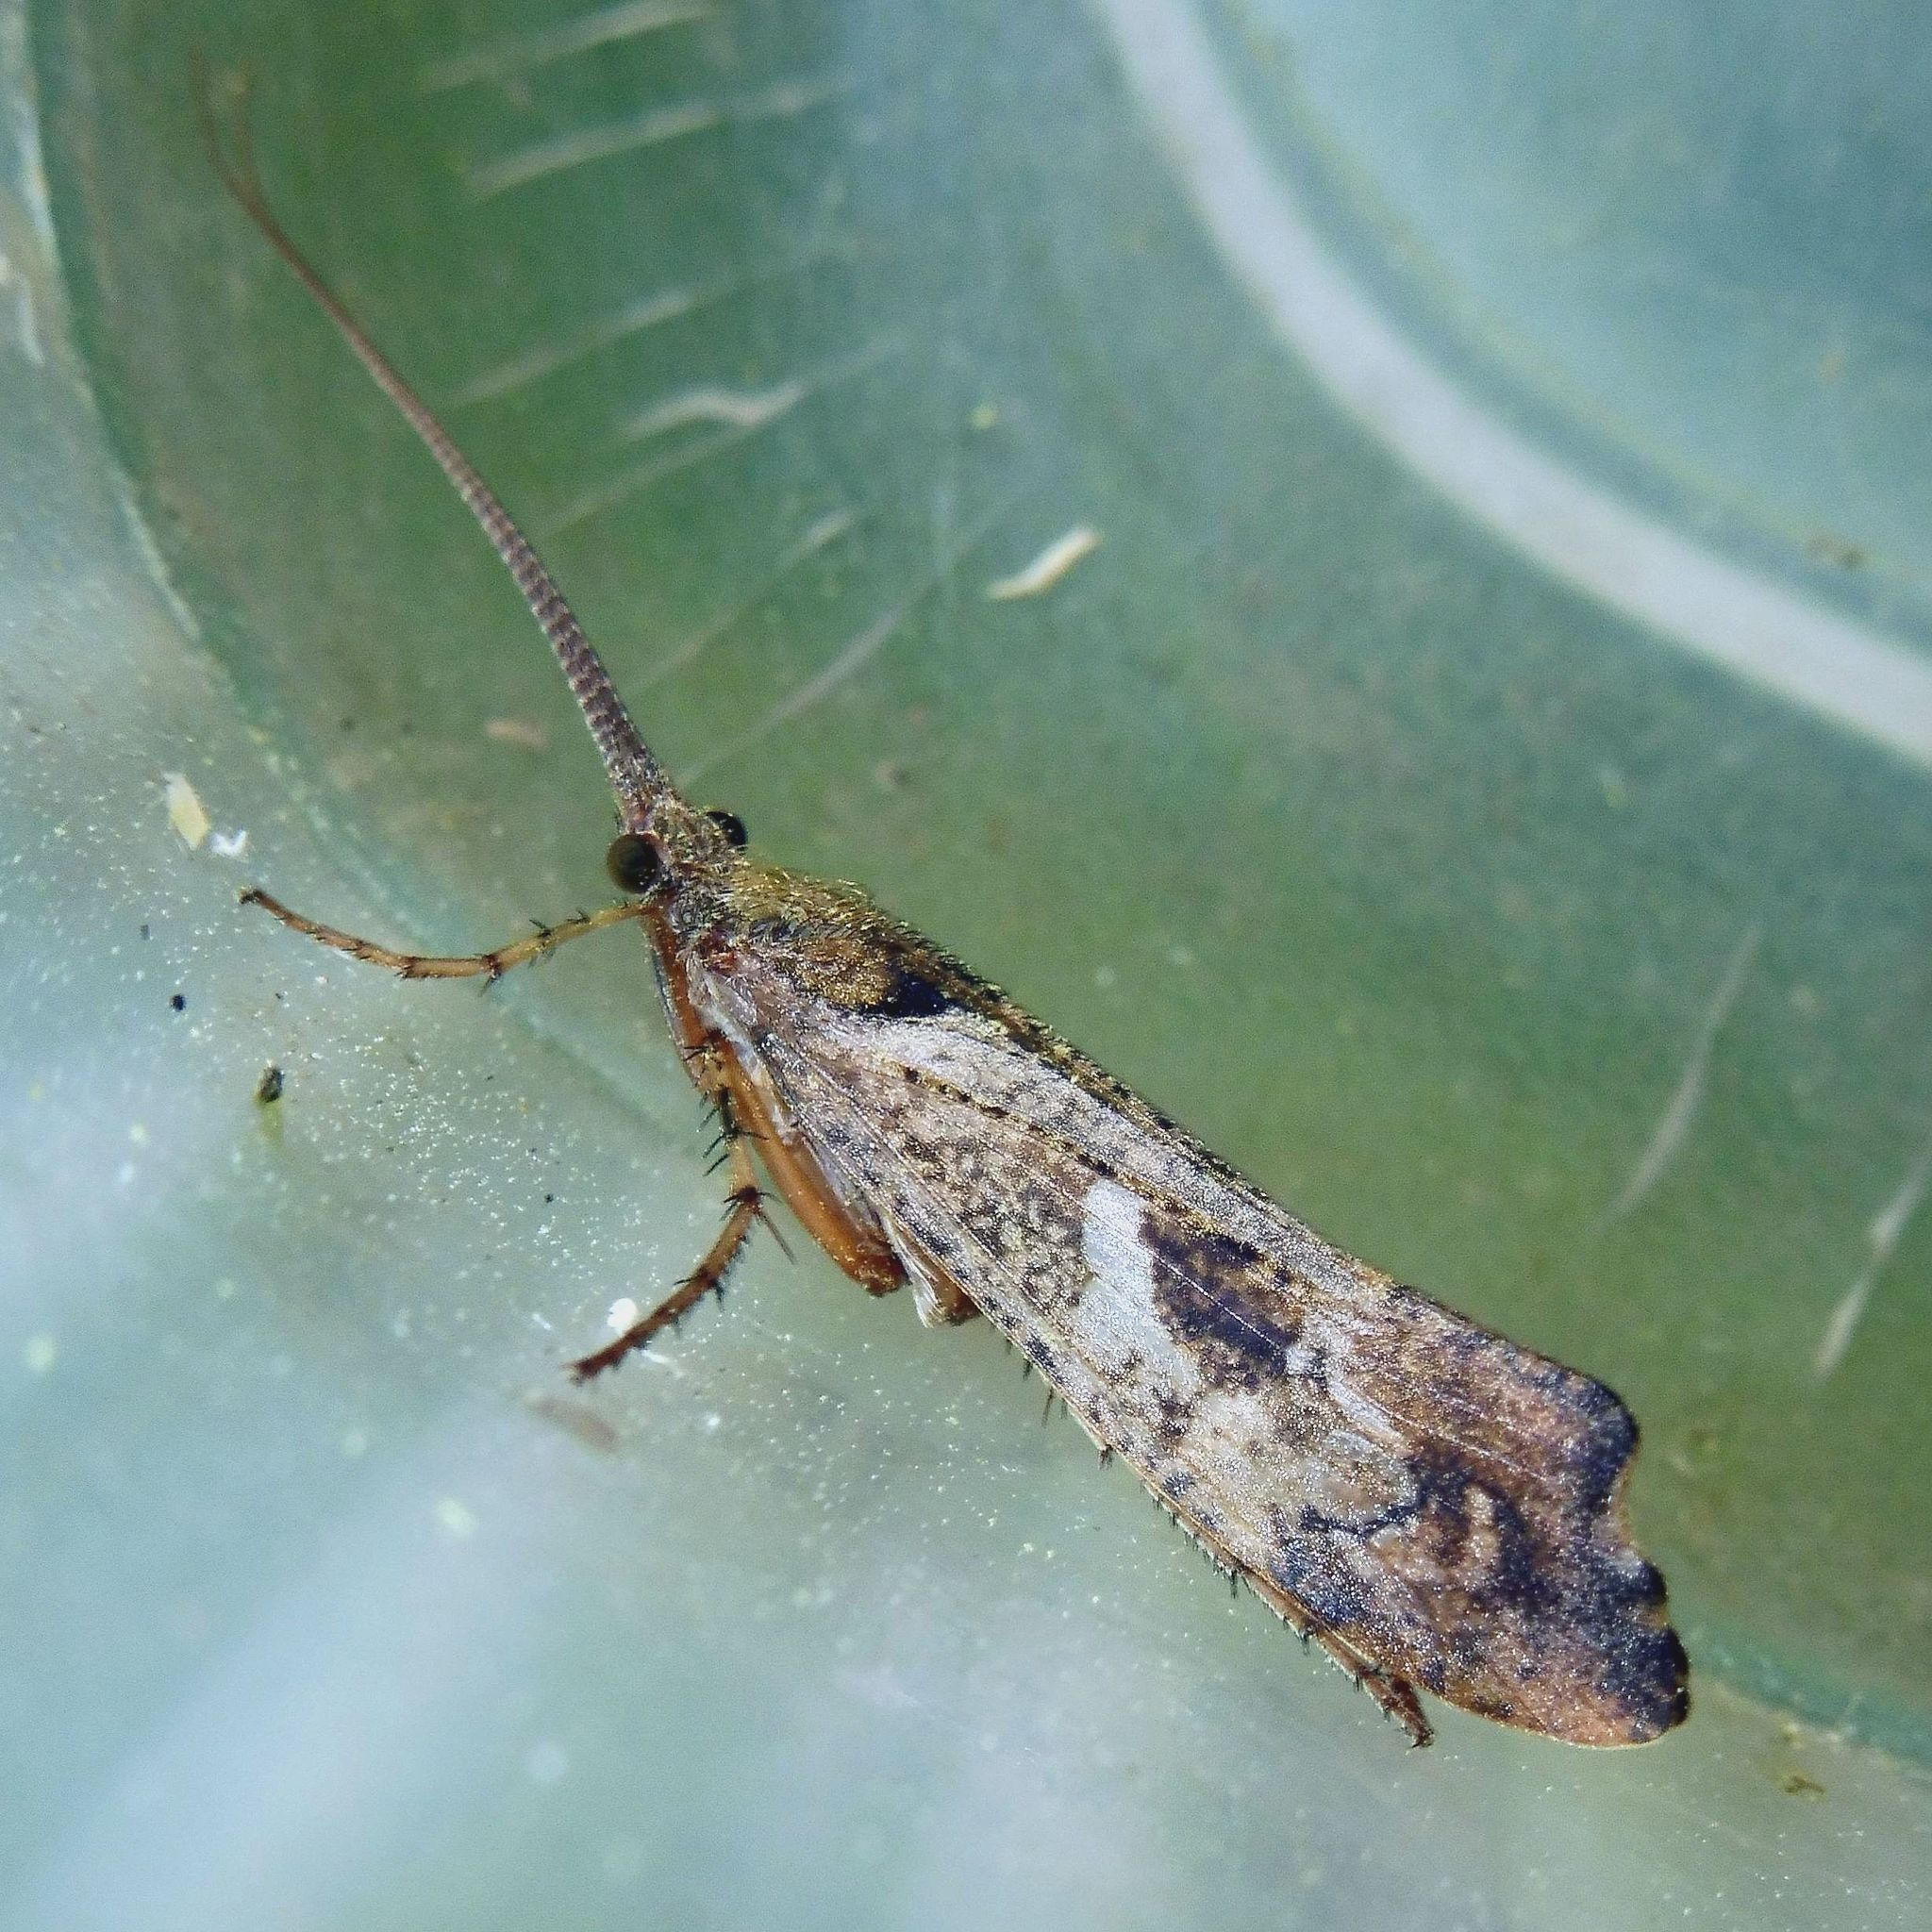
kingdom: Animalia
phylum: Arthropoda
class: Insecta
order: Trichoptera
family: Limnephilidae
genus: Glyphotaelius
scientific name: Glyphotaelius pellucidus
